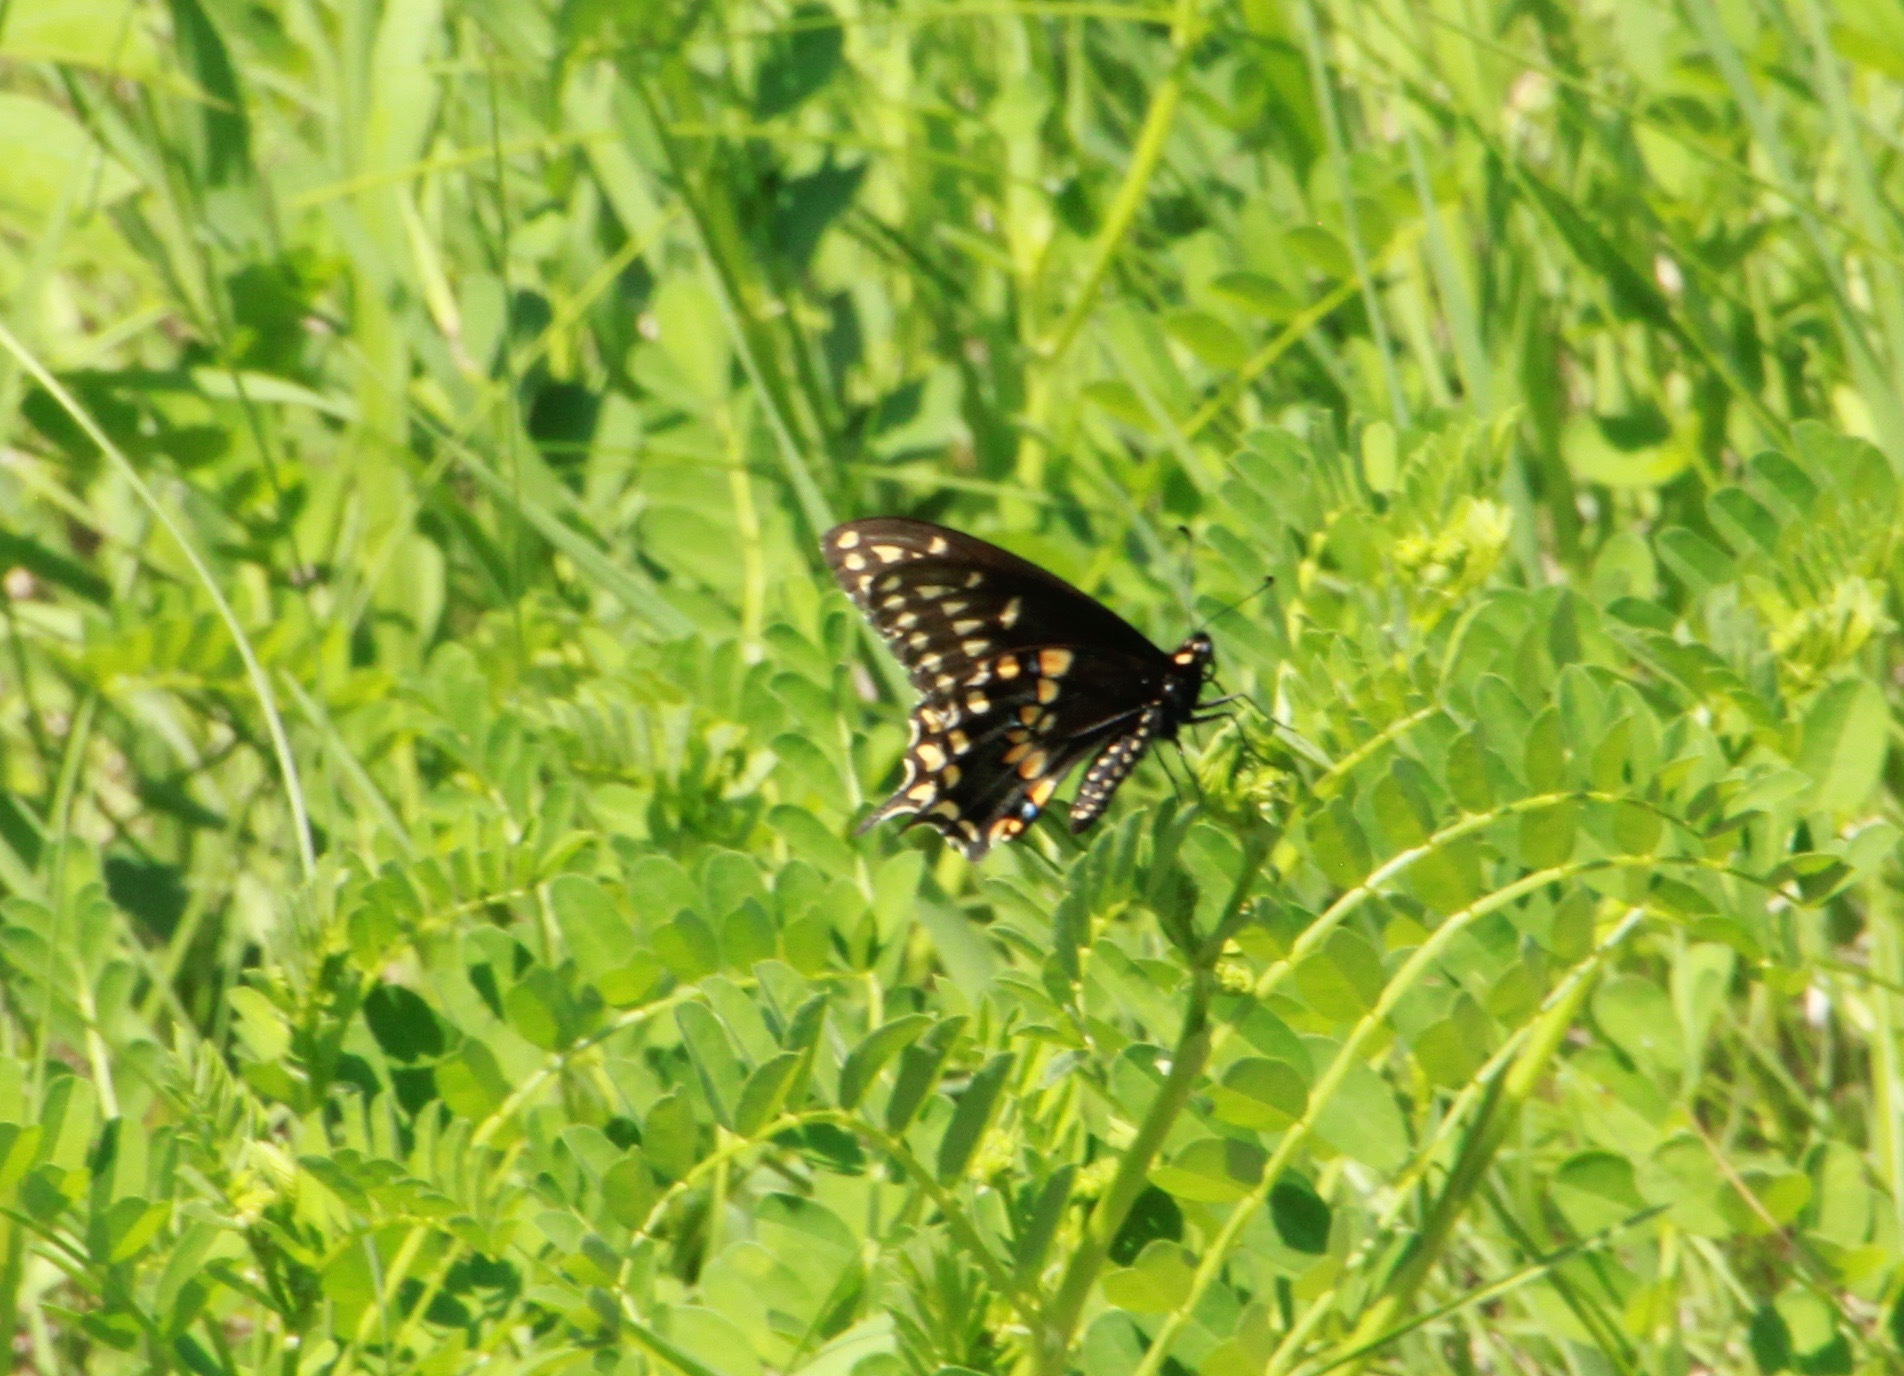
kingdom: Animalia
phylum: Arthropoda
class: Insecta
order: Lepidoptera
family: Papilionidae
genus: Papilio
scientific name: Papilio polyxenes
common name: Black swallowtail
